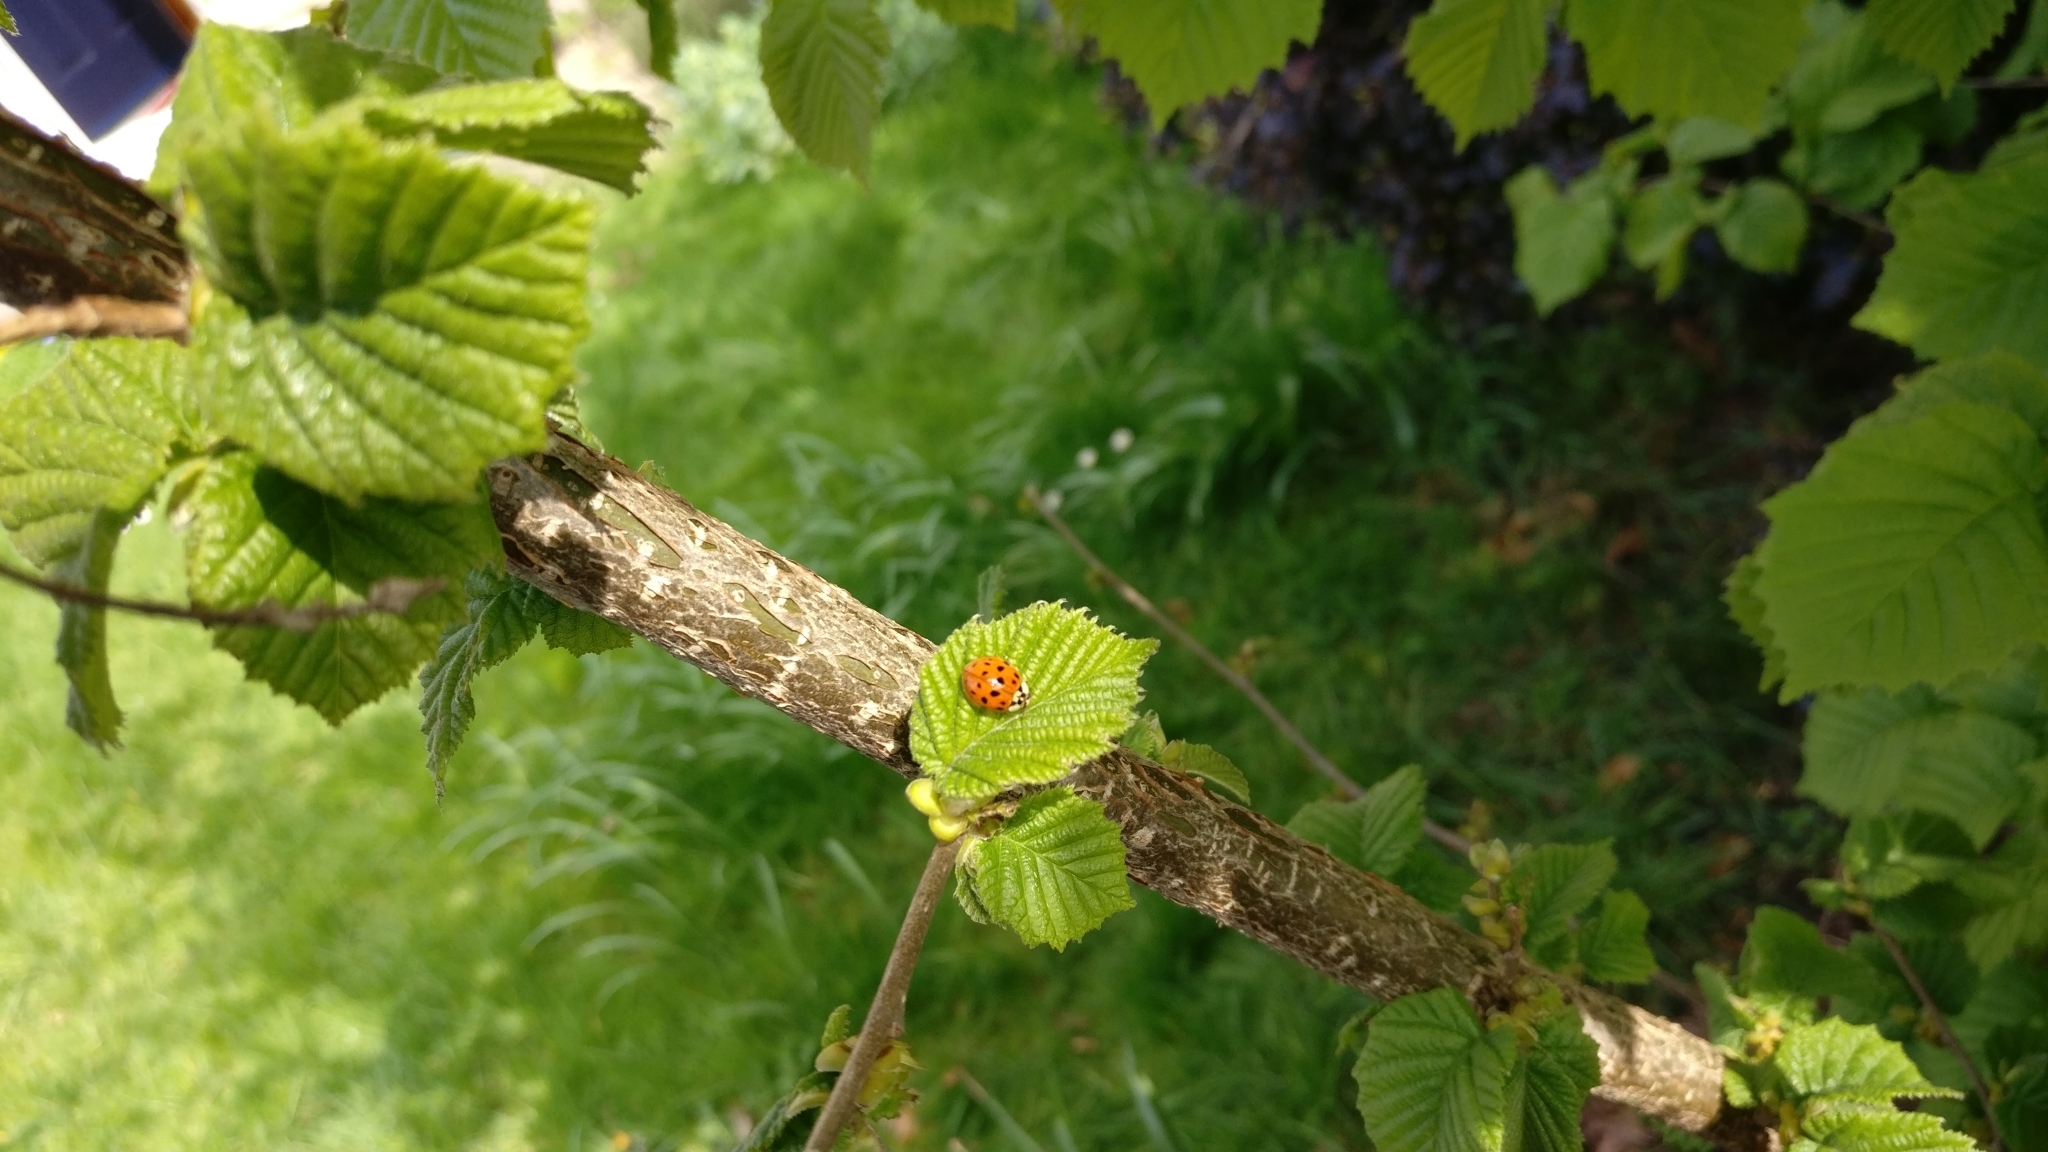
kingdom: Animalia
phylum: Arthropoda
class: Insecta
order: Coleoptera
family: Coccinellidae
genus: Harmonia
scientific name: Harmonia axyridis
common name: Harlequin ladybird
